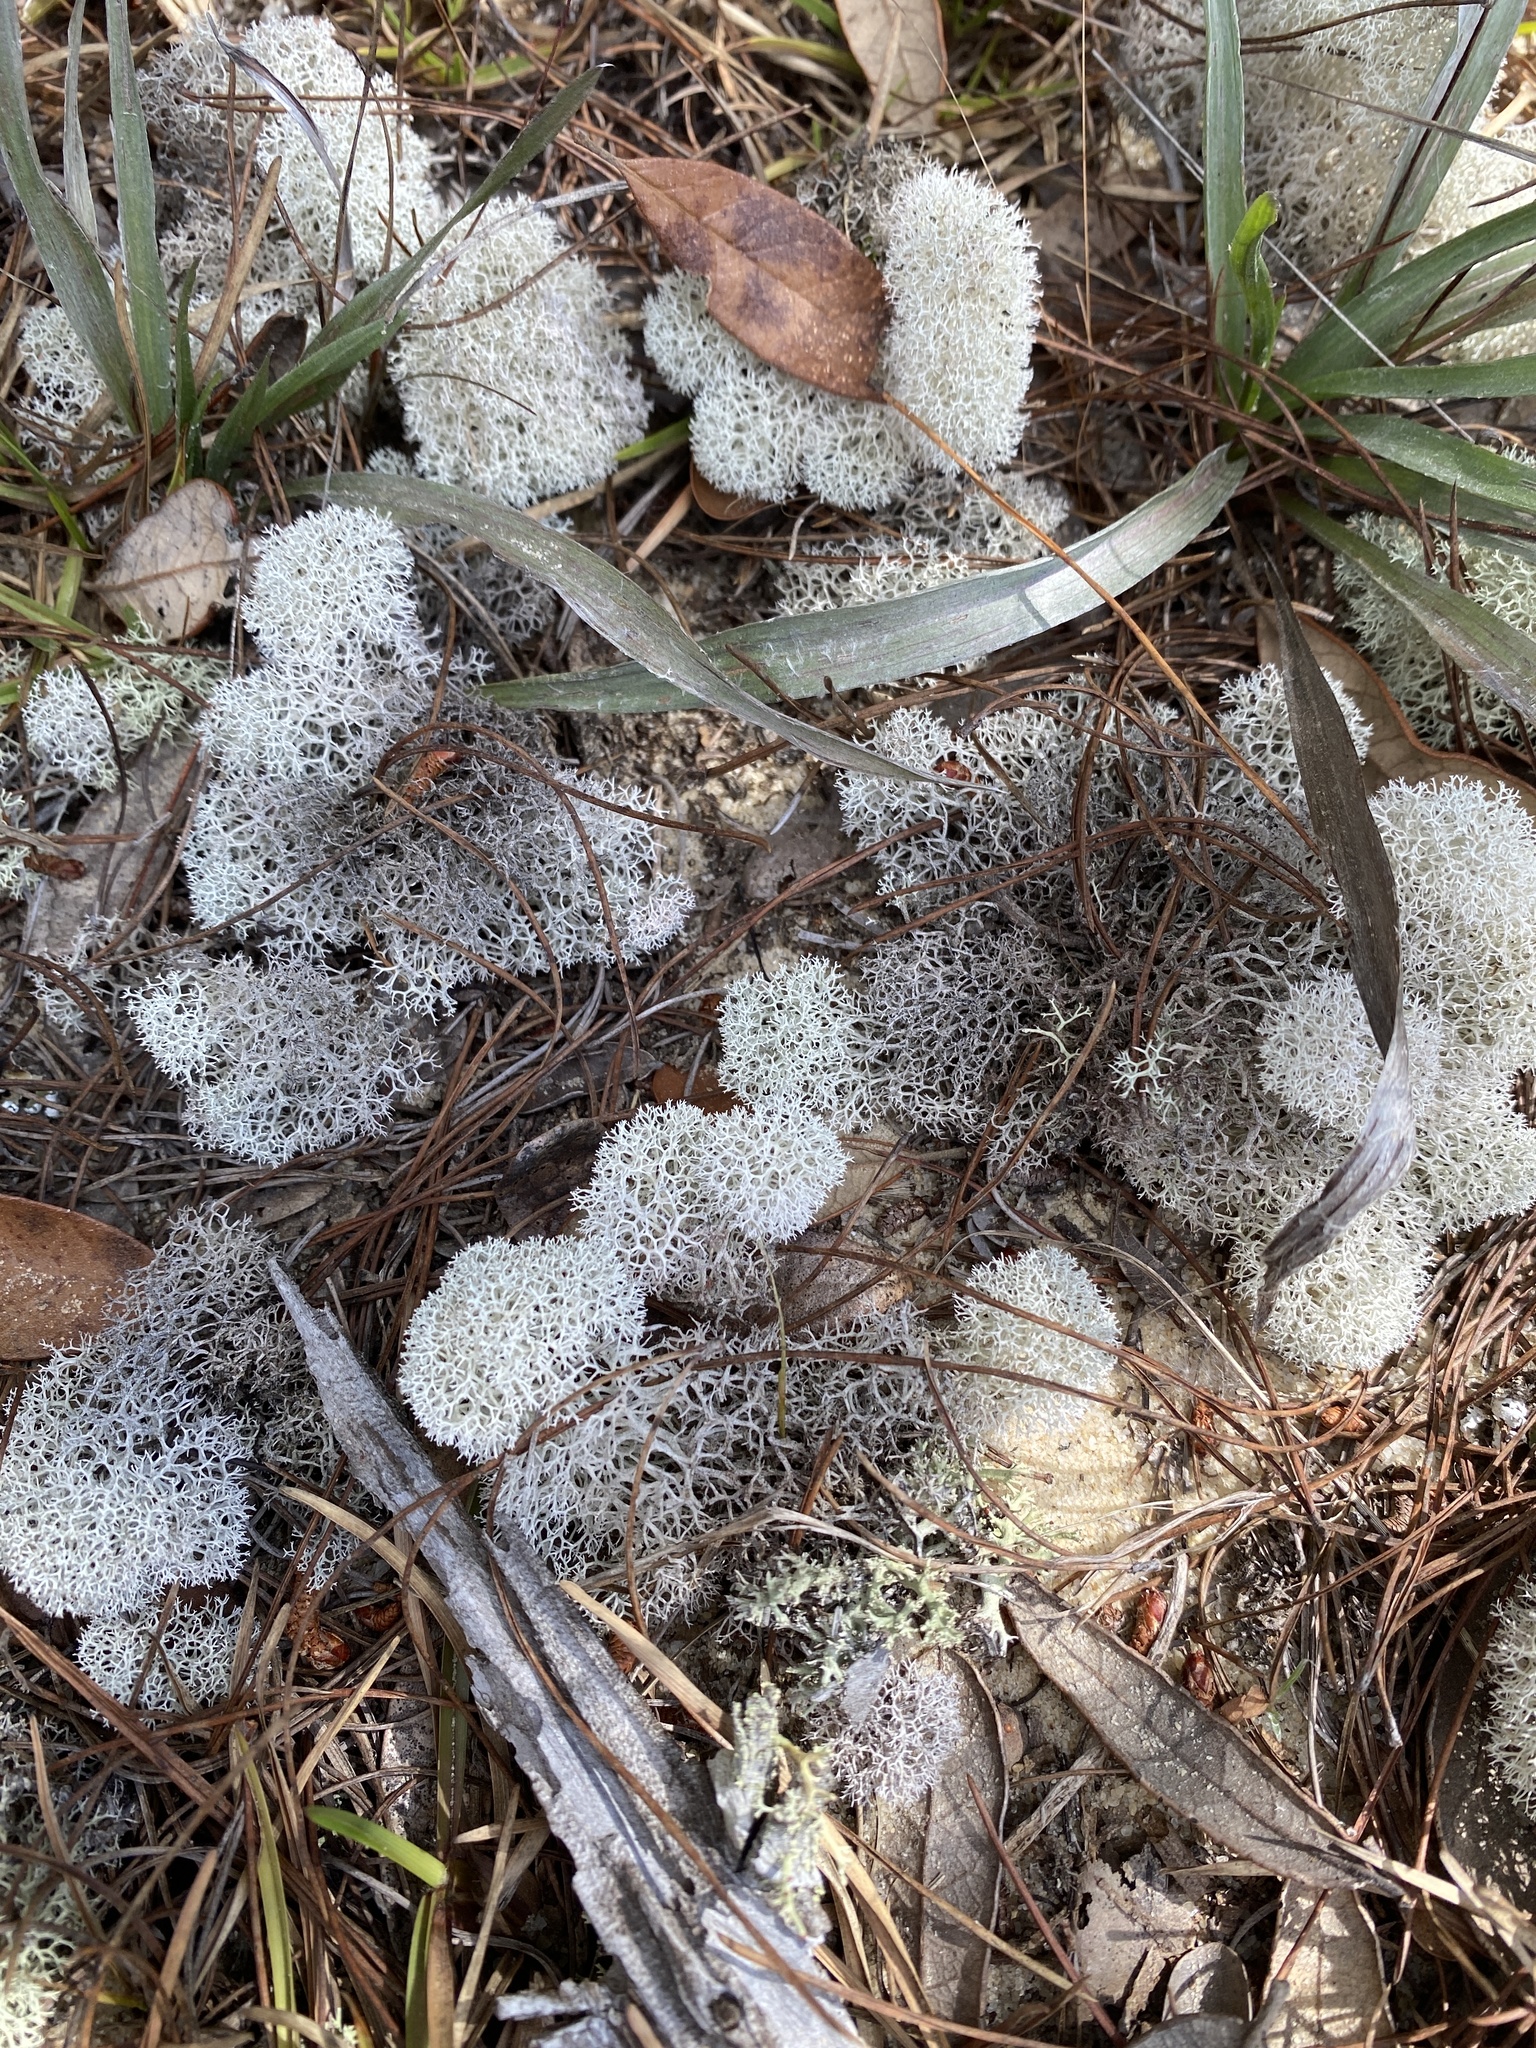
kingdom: Fungi
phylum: Ascomycota
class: Lecanoromycetes
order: Lecanorales
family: Cladoniaceae
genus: Cladonia
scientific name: Cladonia evansii
